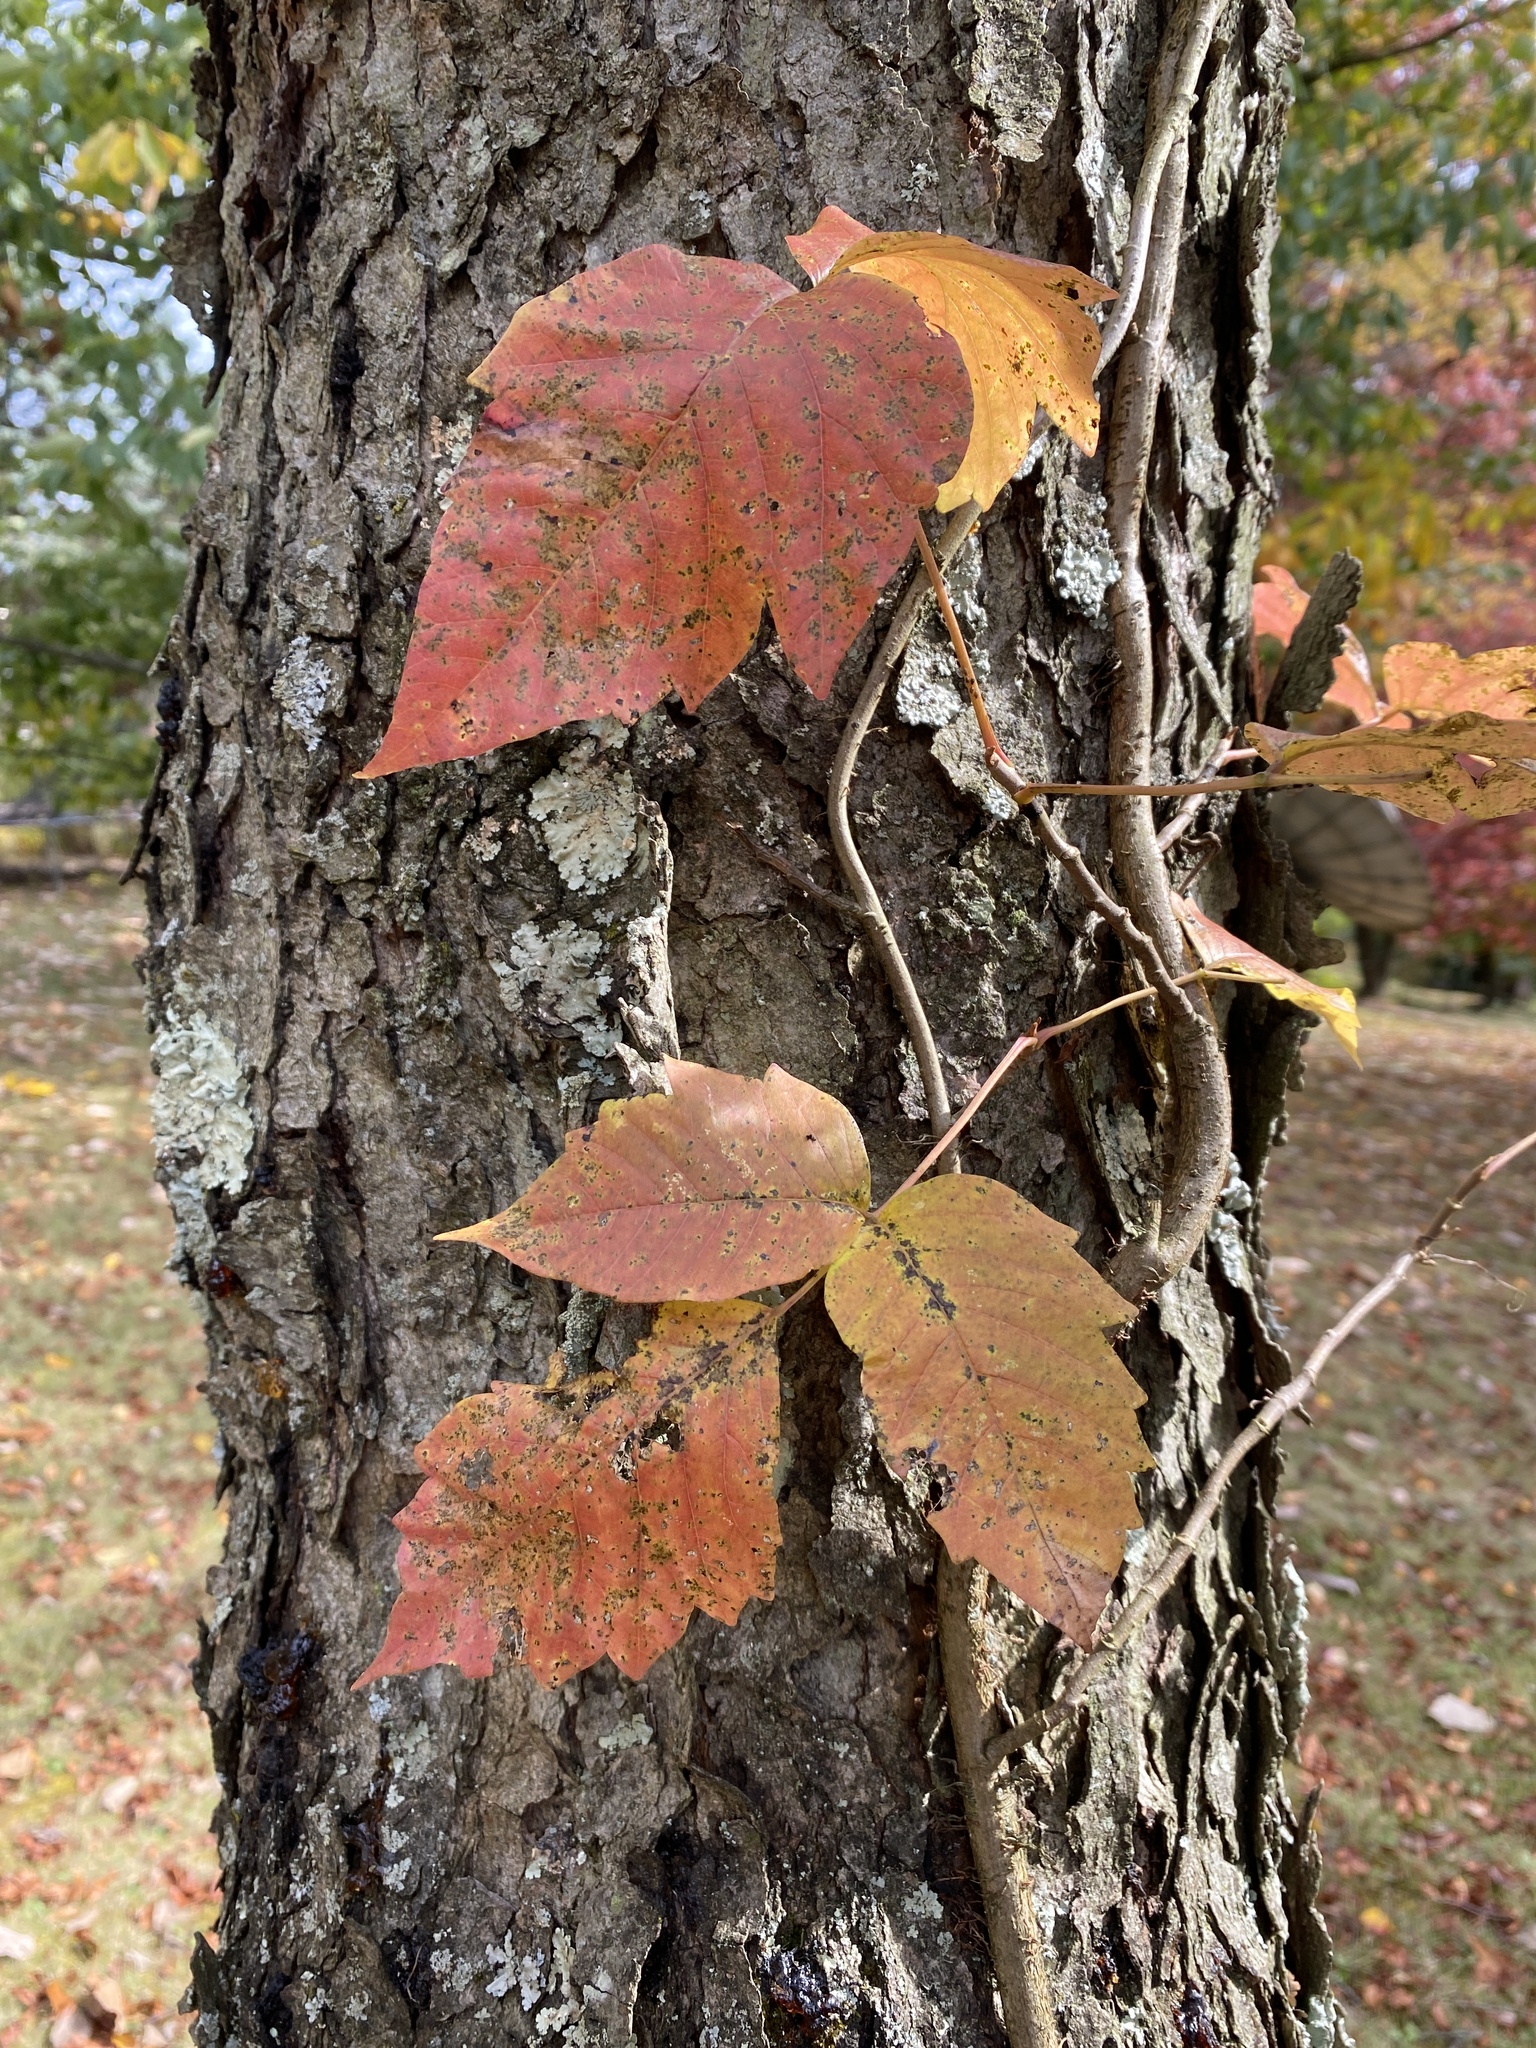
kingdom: Plantae
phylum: Tracheophyta
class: Magnoliopsida
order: Sapindales
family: Anacardiaceae
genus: Toxicodendron
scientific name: Toxicodendron radicans
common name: Poison ivy
